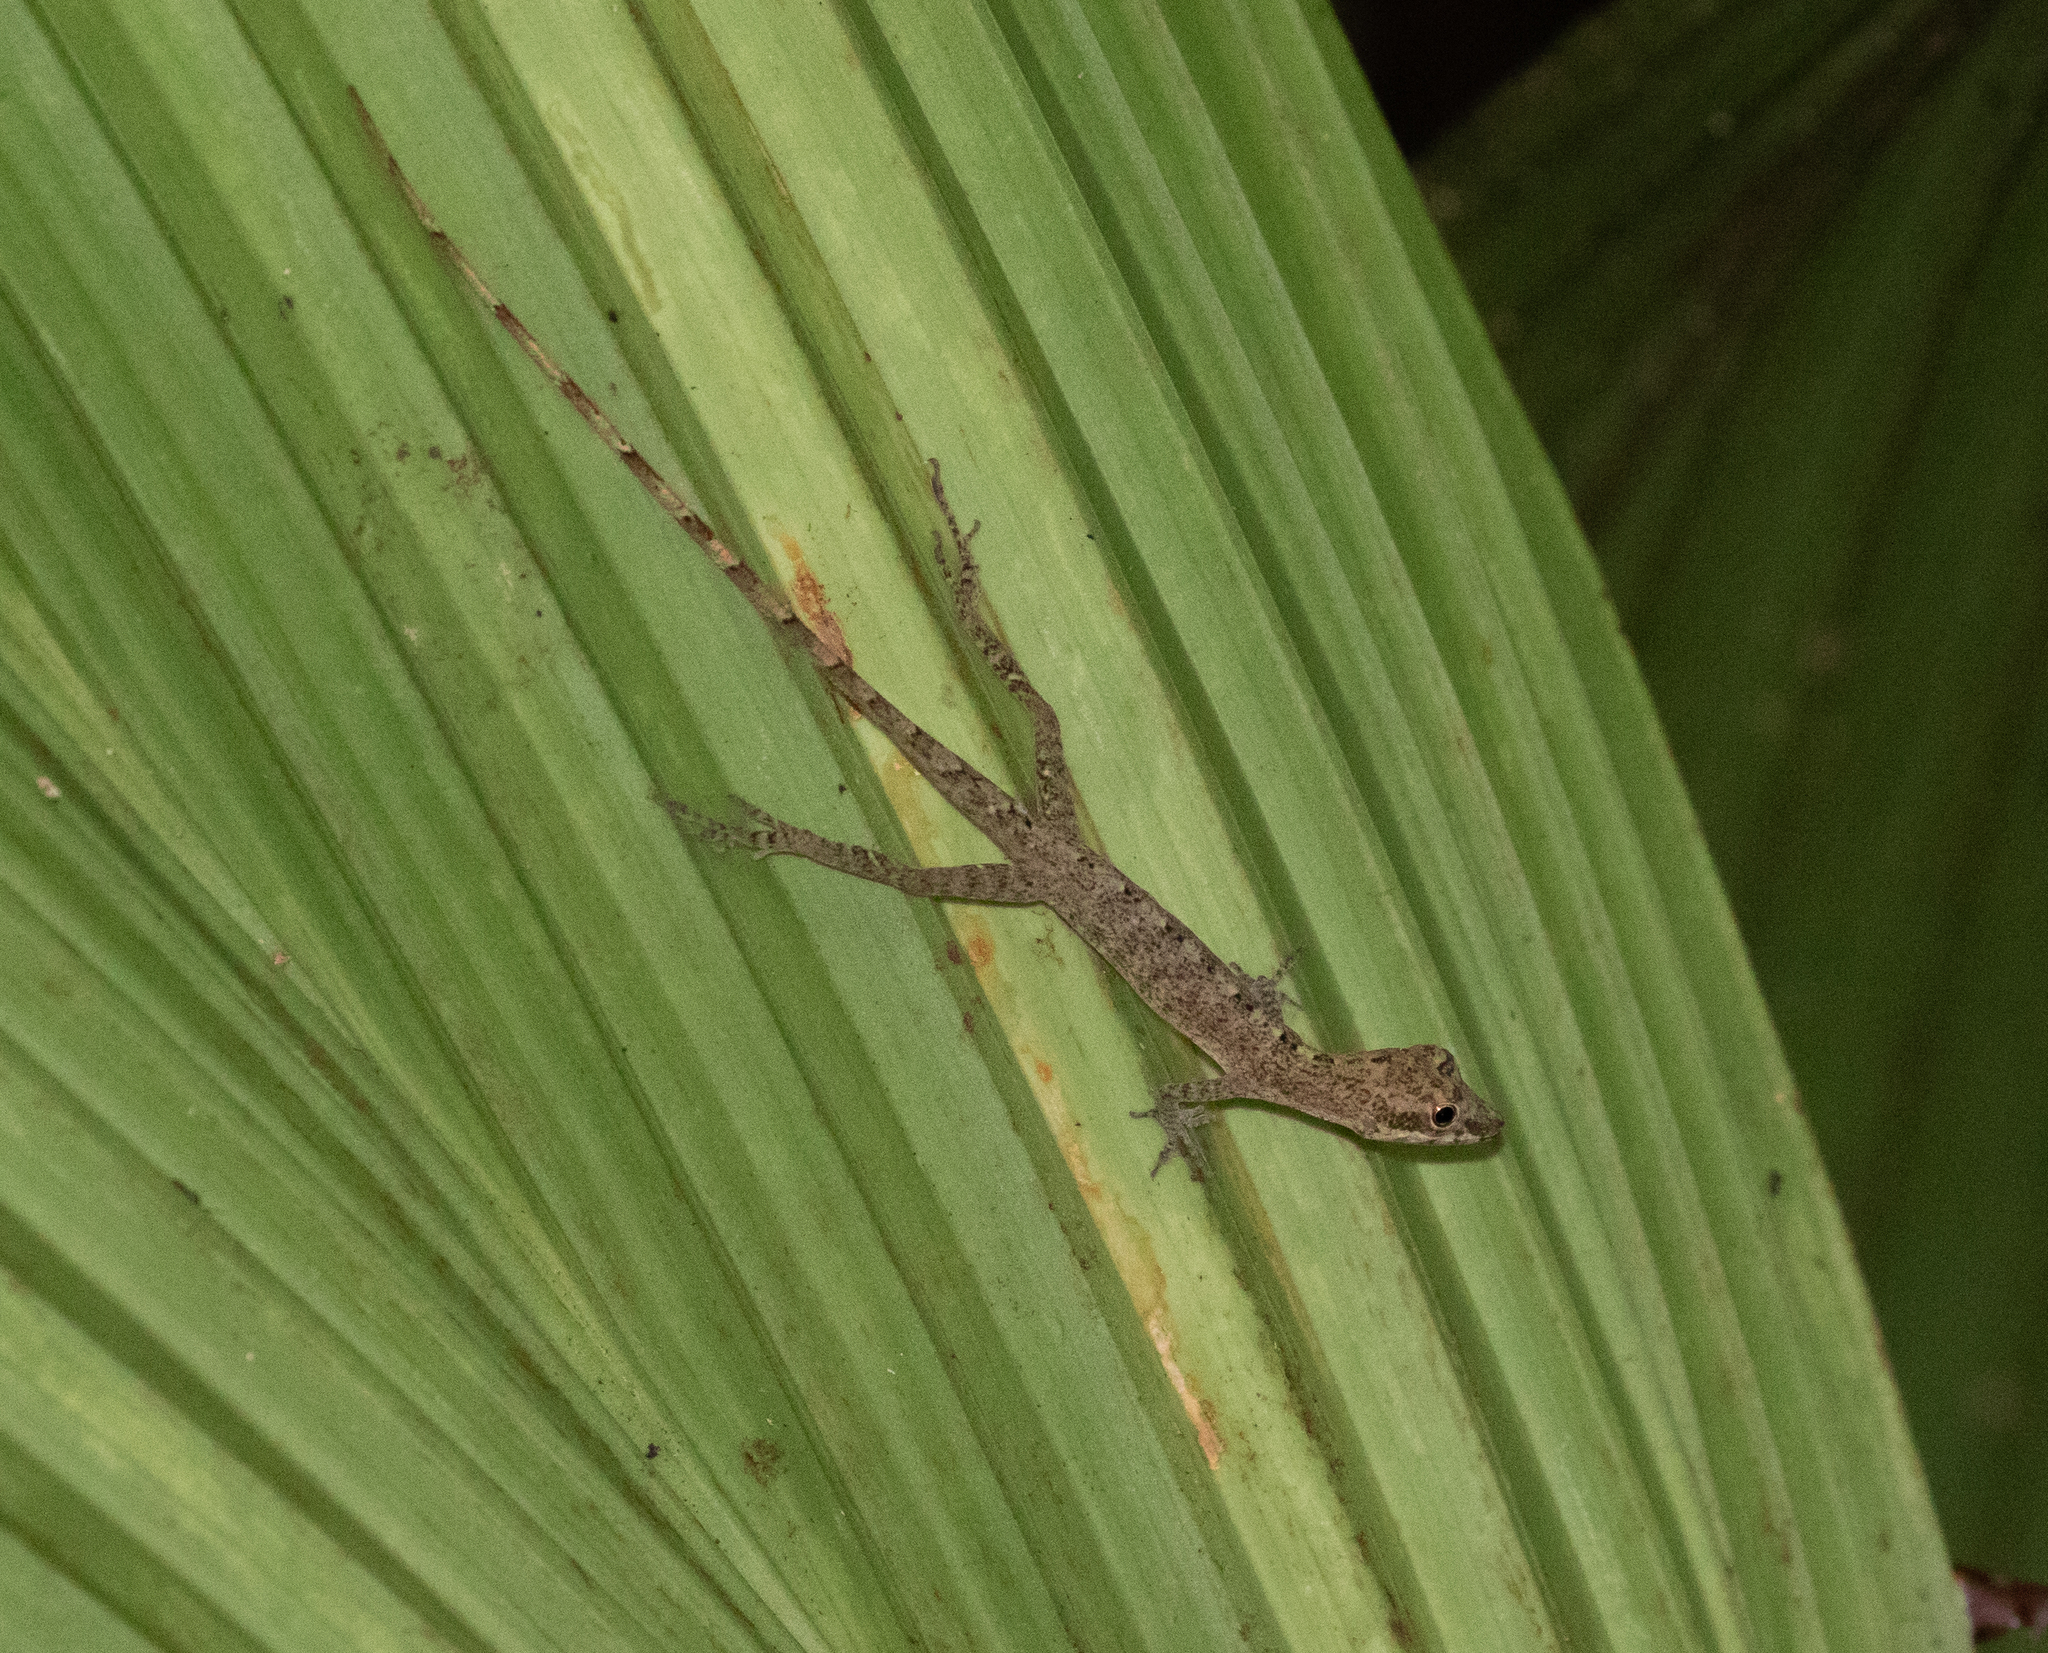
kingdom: Animalia
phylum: Chordata
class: Squamata
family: Dactyloidae
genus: Anolis
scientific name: Anolis fuscoauratus
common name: Brown-eared anole
